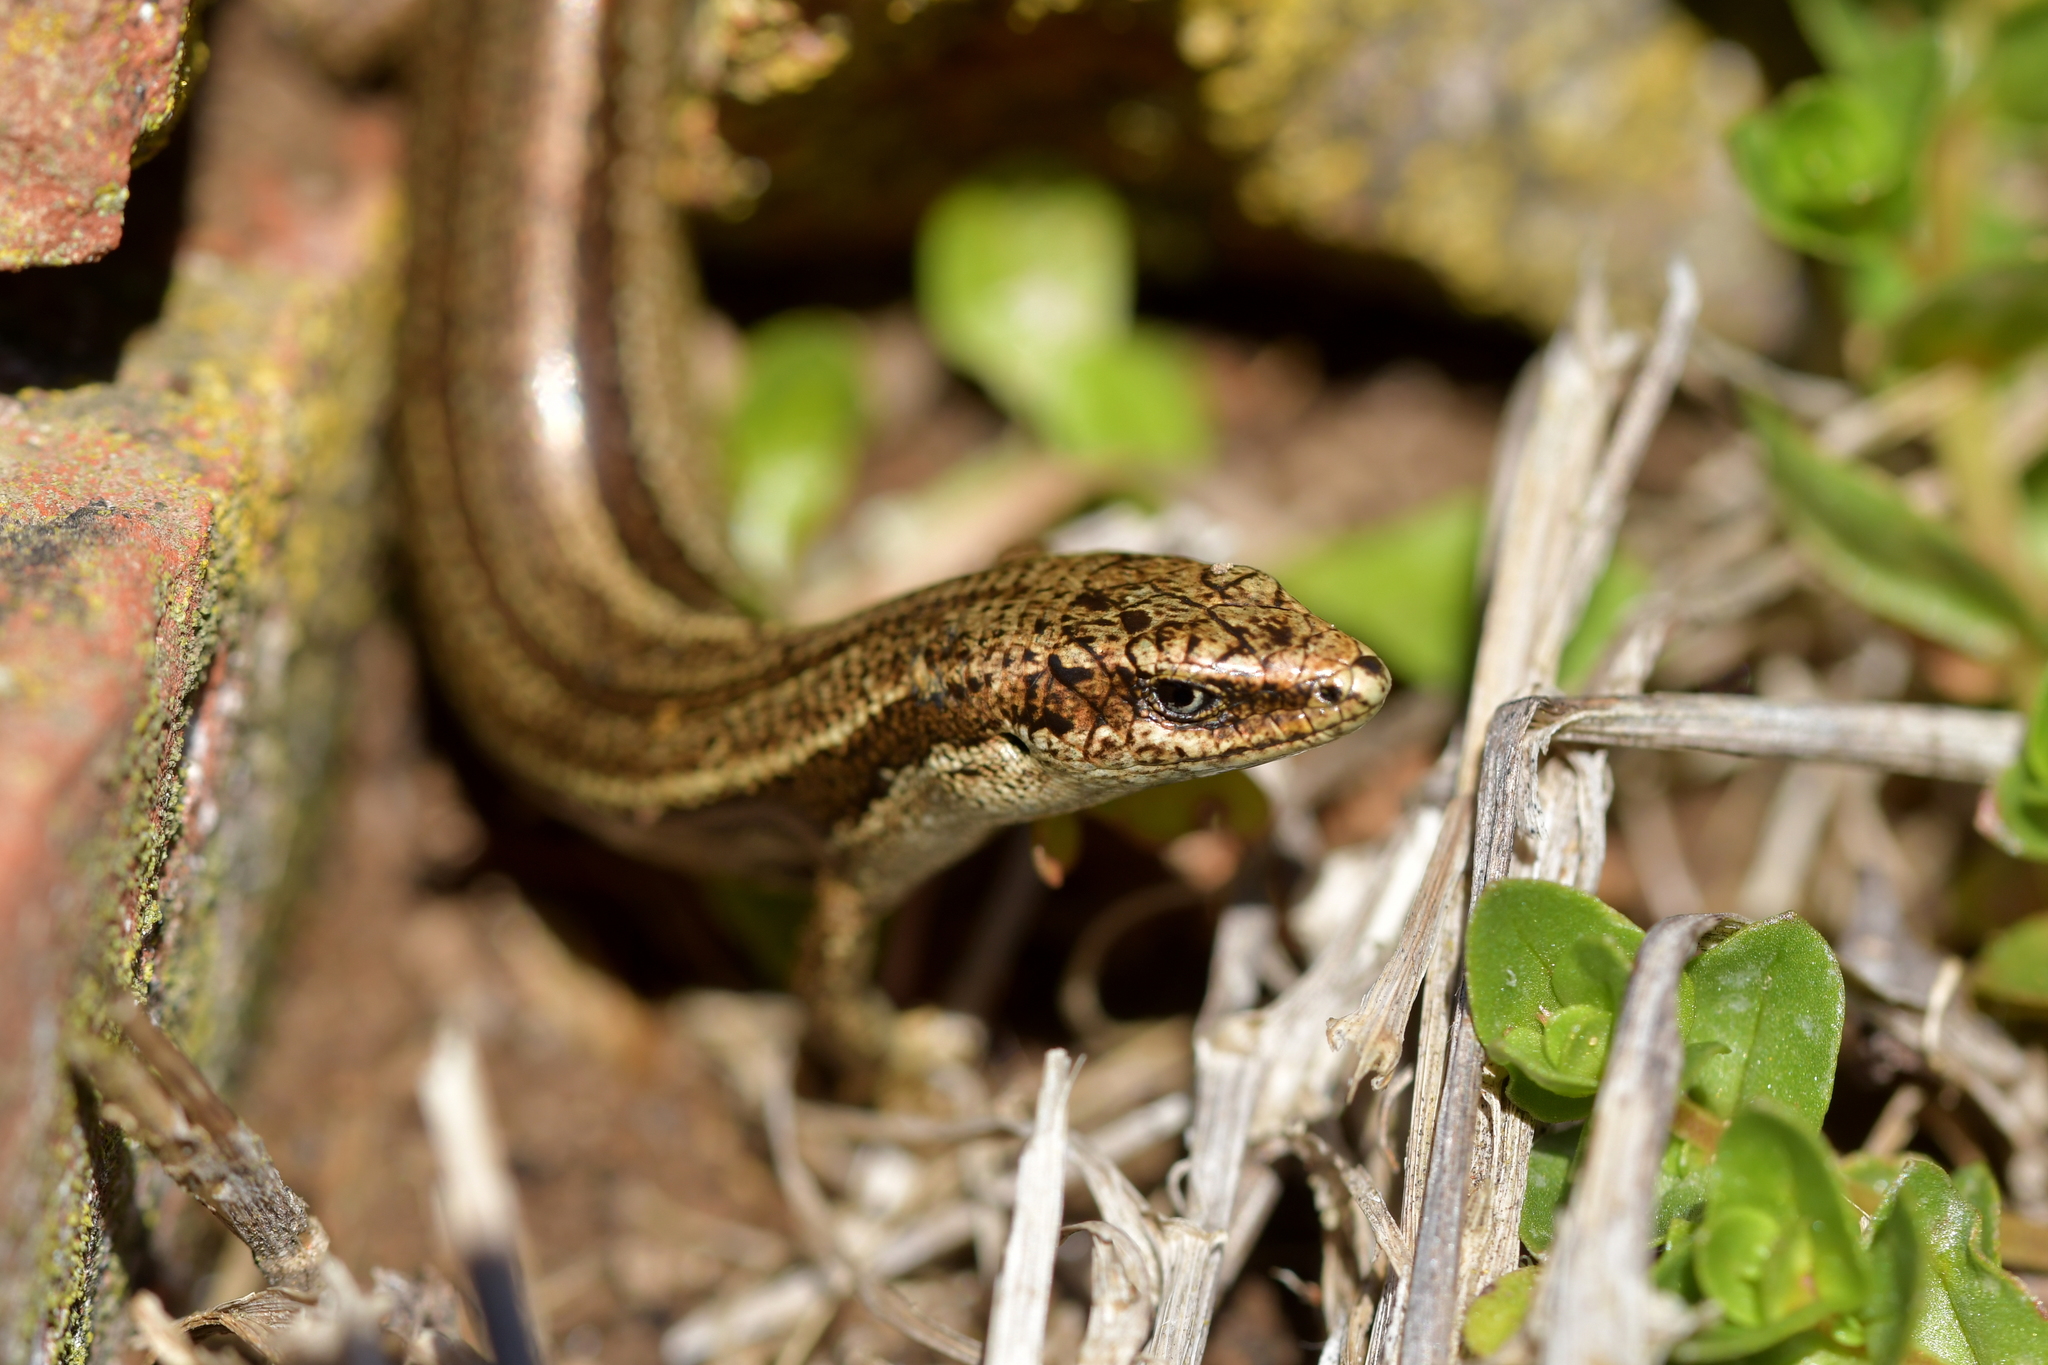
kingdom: Animalia
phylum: Chordata
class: Squamata
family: Scincidae
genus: Oligosoma
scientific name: Oligosoma polychroma
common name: Common new zealand skink
